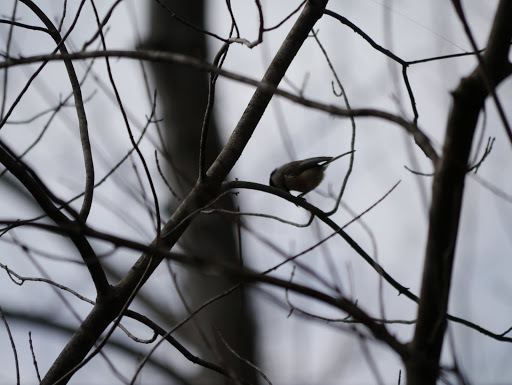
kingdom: Animalia
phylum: Chordata
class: Aves
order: Passeriformes
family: Paridae
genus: Poecile
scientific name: Poecile carolinensis
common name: Carolina chickadee
